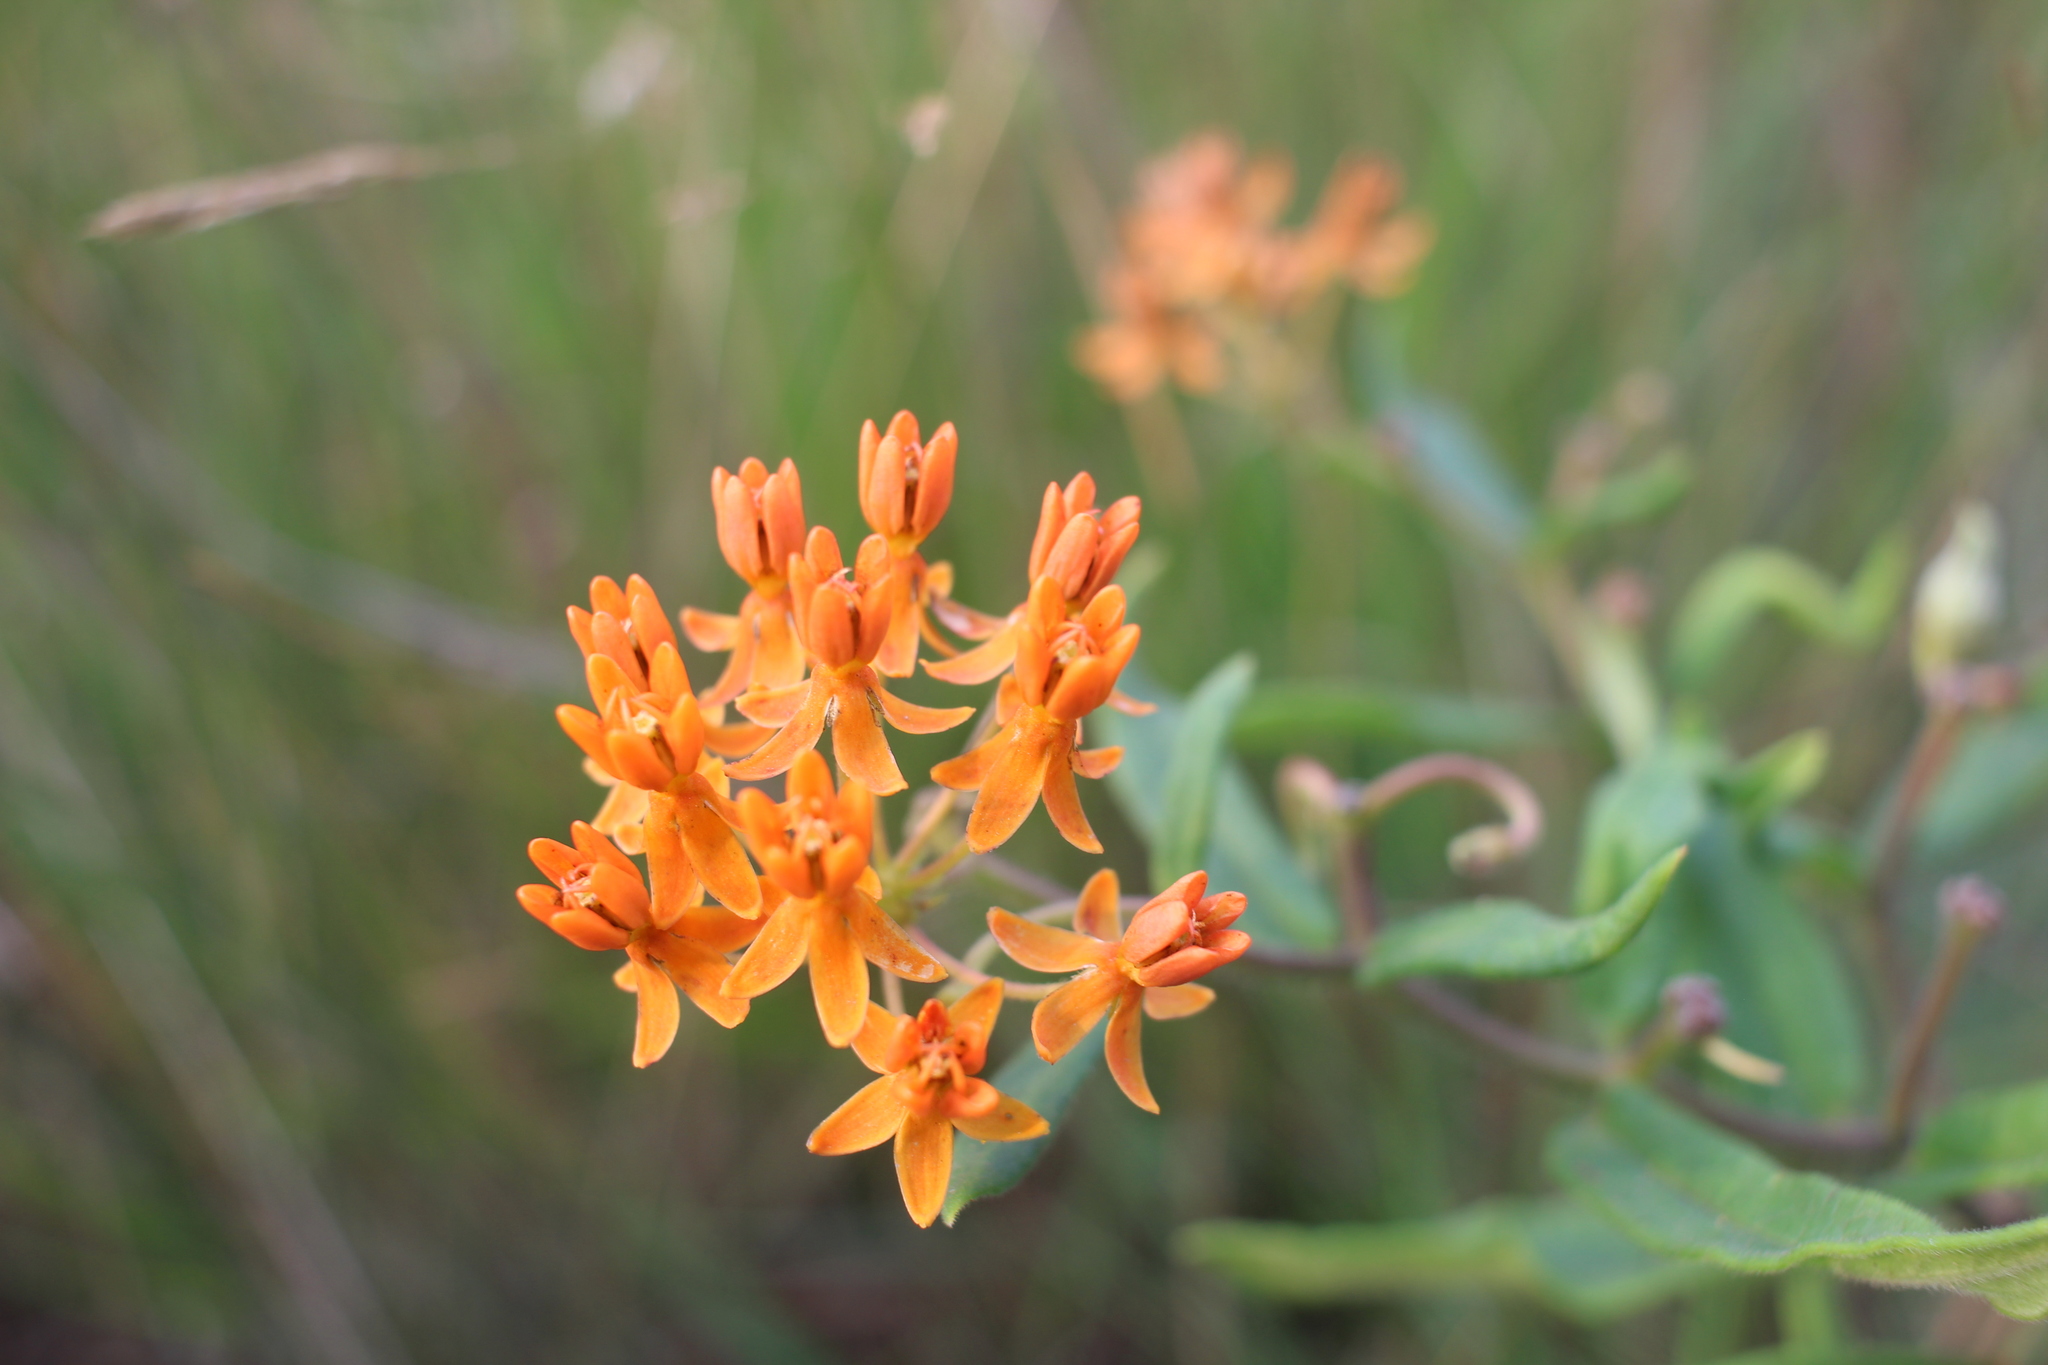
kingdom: Plantae
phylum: Tracheophyta
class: Magnoliopsida
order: Gentianales
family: Apocynaceae
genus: Asclepias
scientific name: Asclepias tuberosa
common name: Butterfly milkweed
